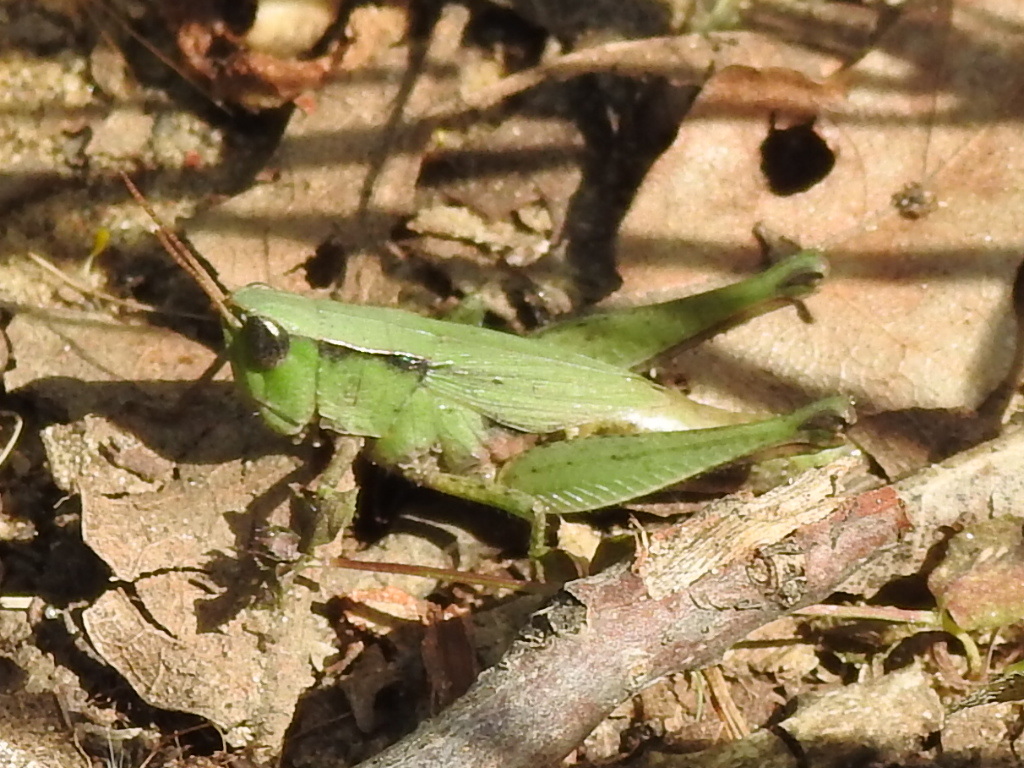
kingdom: Animalia
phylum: Arthropoda
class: Insecta
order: Orthoptera
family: Acrididae
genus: Dichromorpha
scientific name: Dichromorpha viridis
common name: Short-winged green grasshopper
